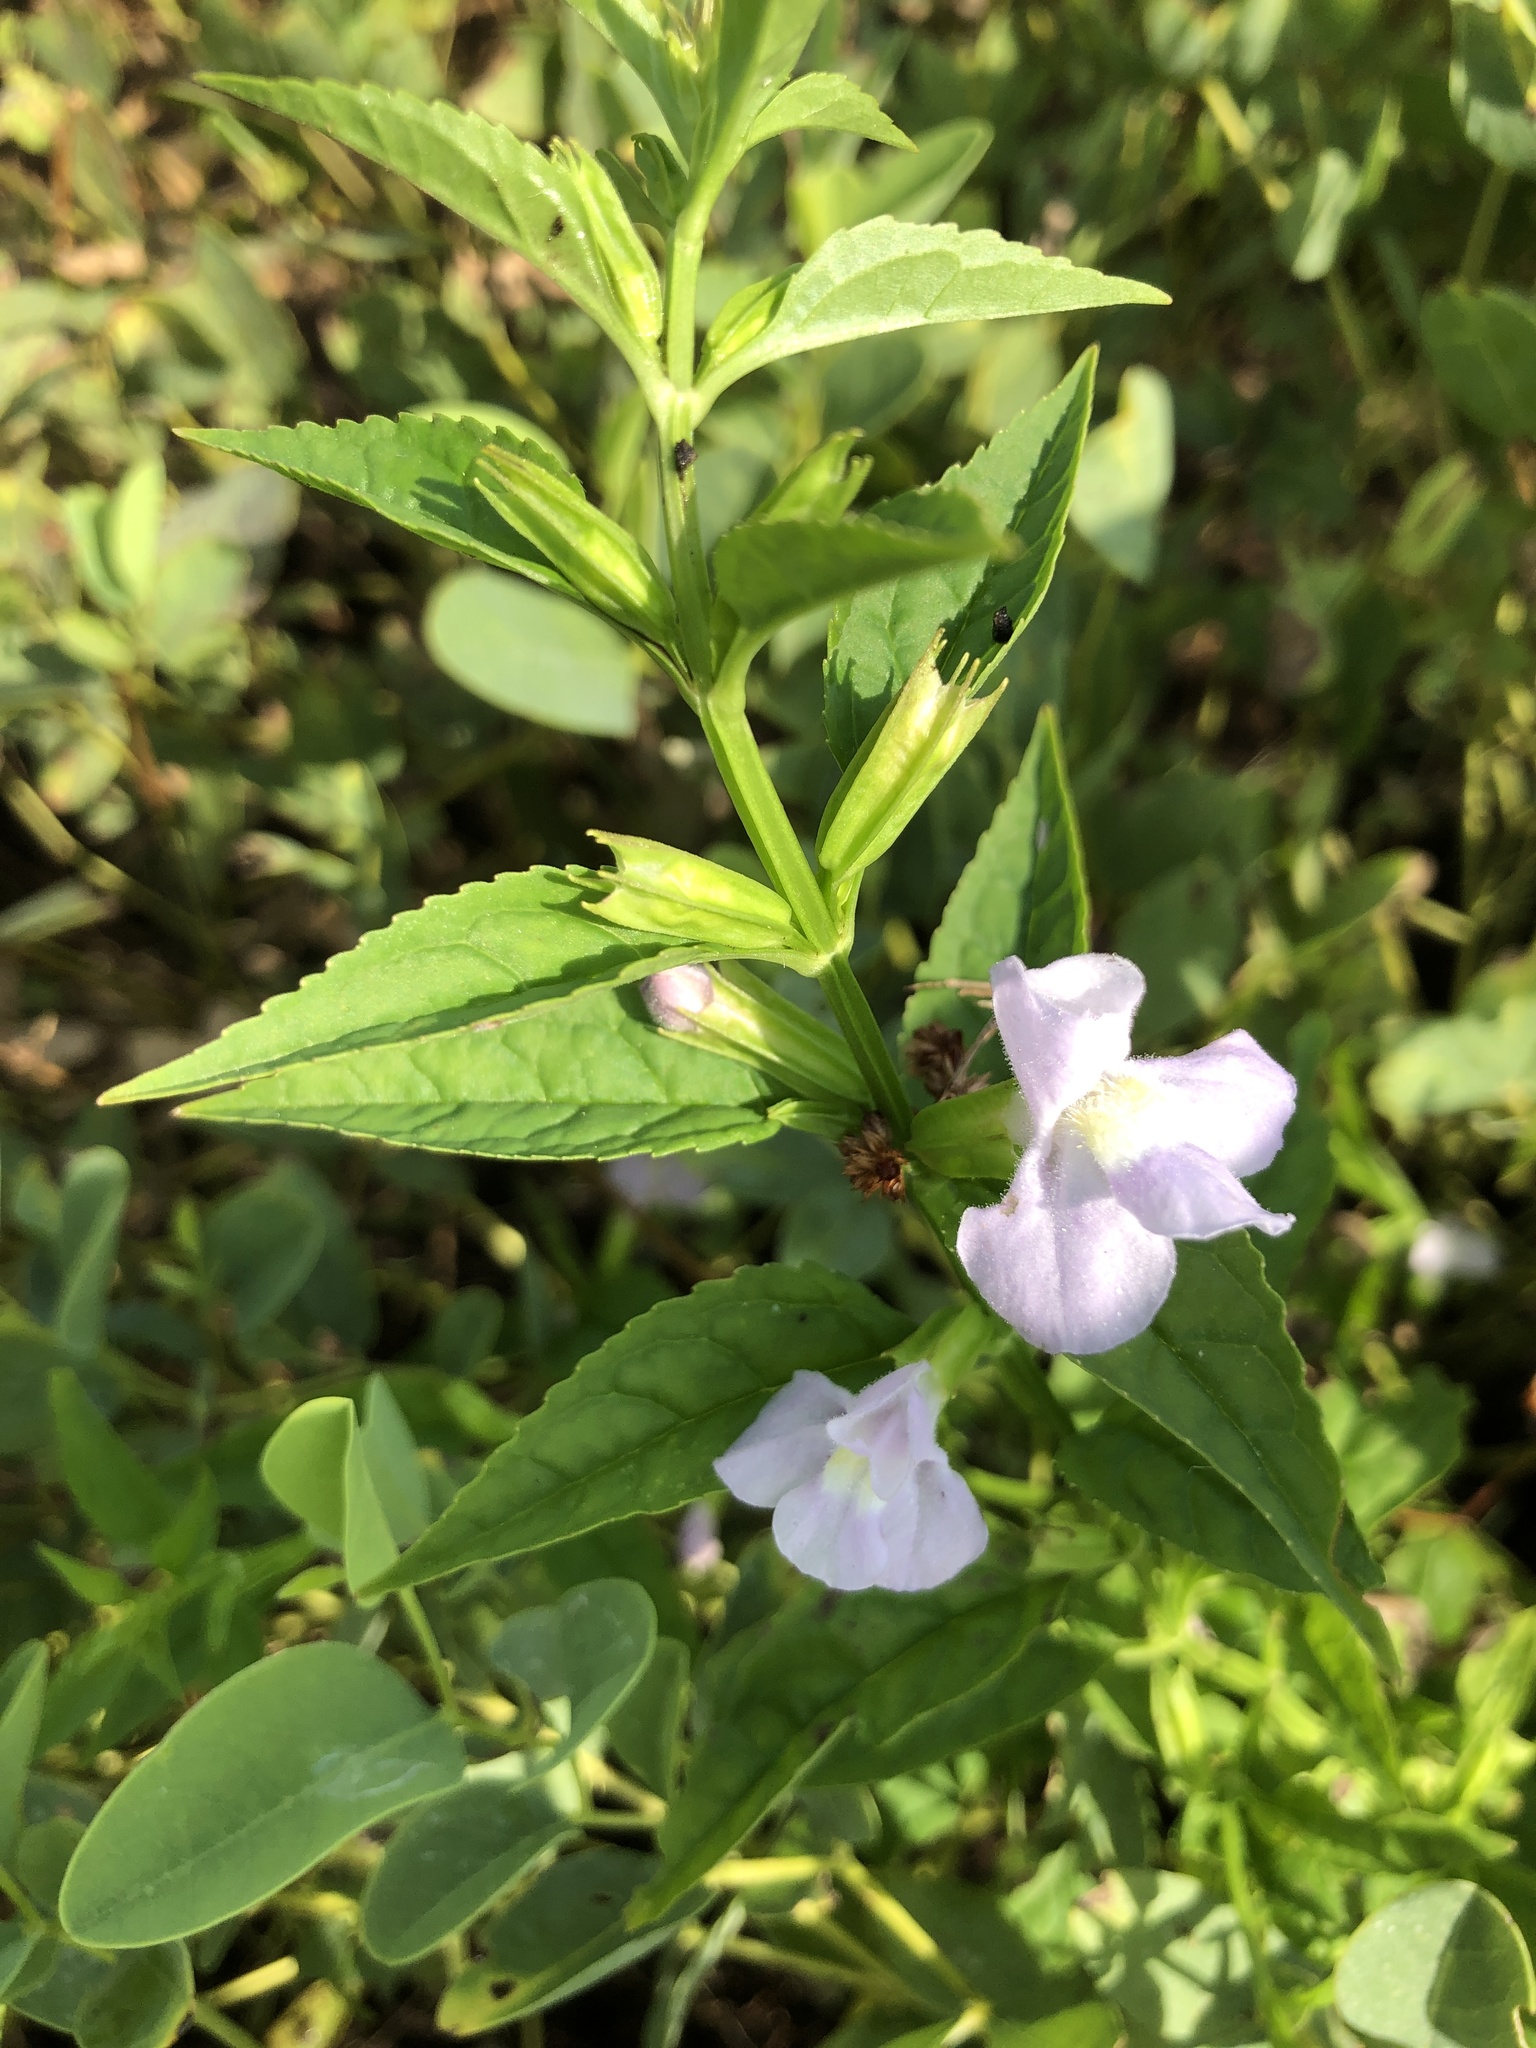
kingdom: Plantae
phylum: Tracheophyta
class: Magnoliopsida
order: Lamiales
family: Phrymaceae
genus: Mimulus
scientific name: Mimulus alatus
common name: Sharp-wing monkey-flower
